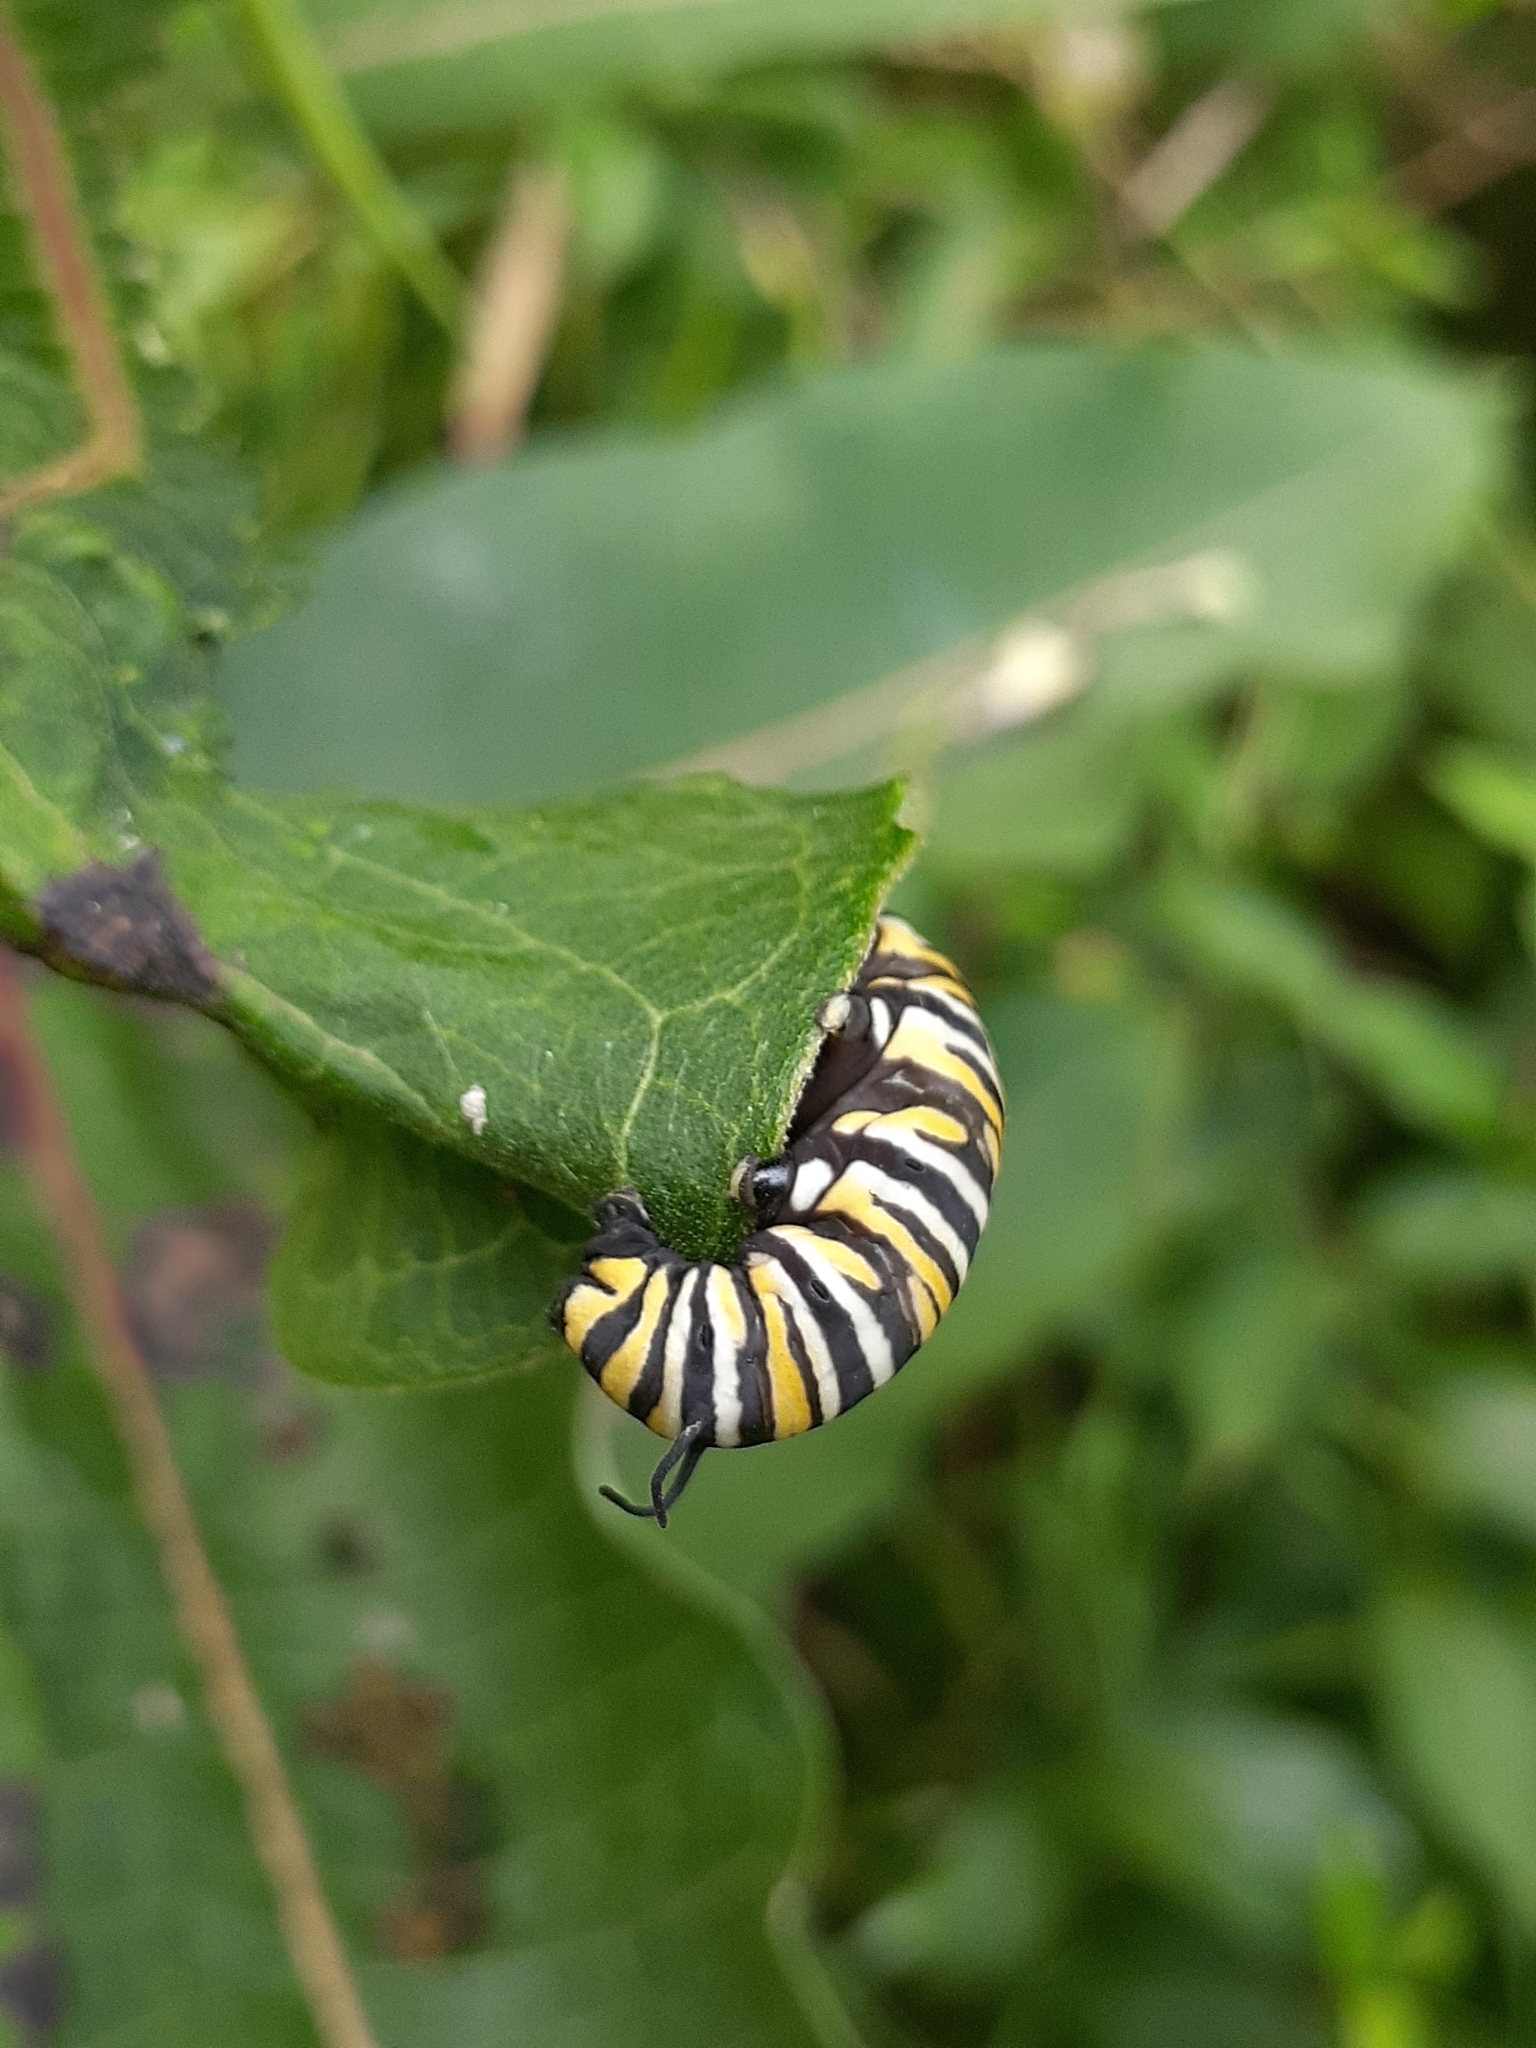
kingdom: Animalia
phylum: Arthropoda
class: Insecta
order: Lepidoptera
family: Nymphalidae
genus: Danaus
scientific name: Danaus plexippus
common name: Monarch
